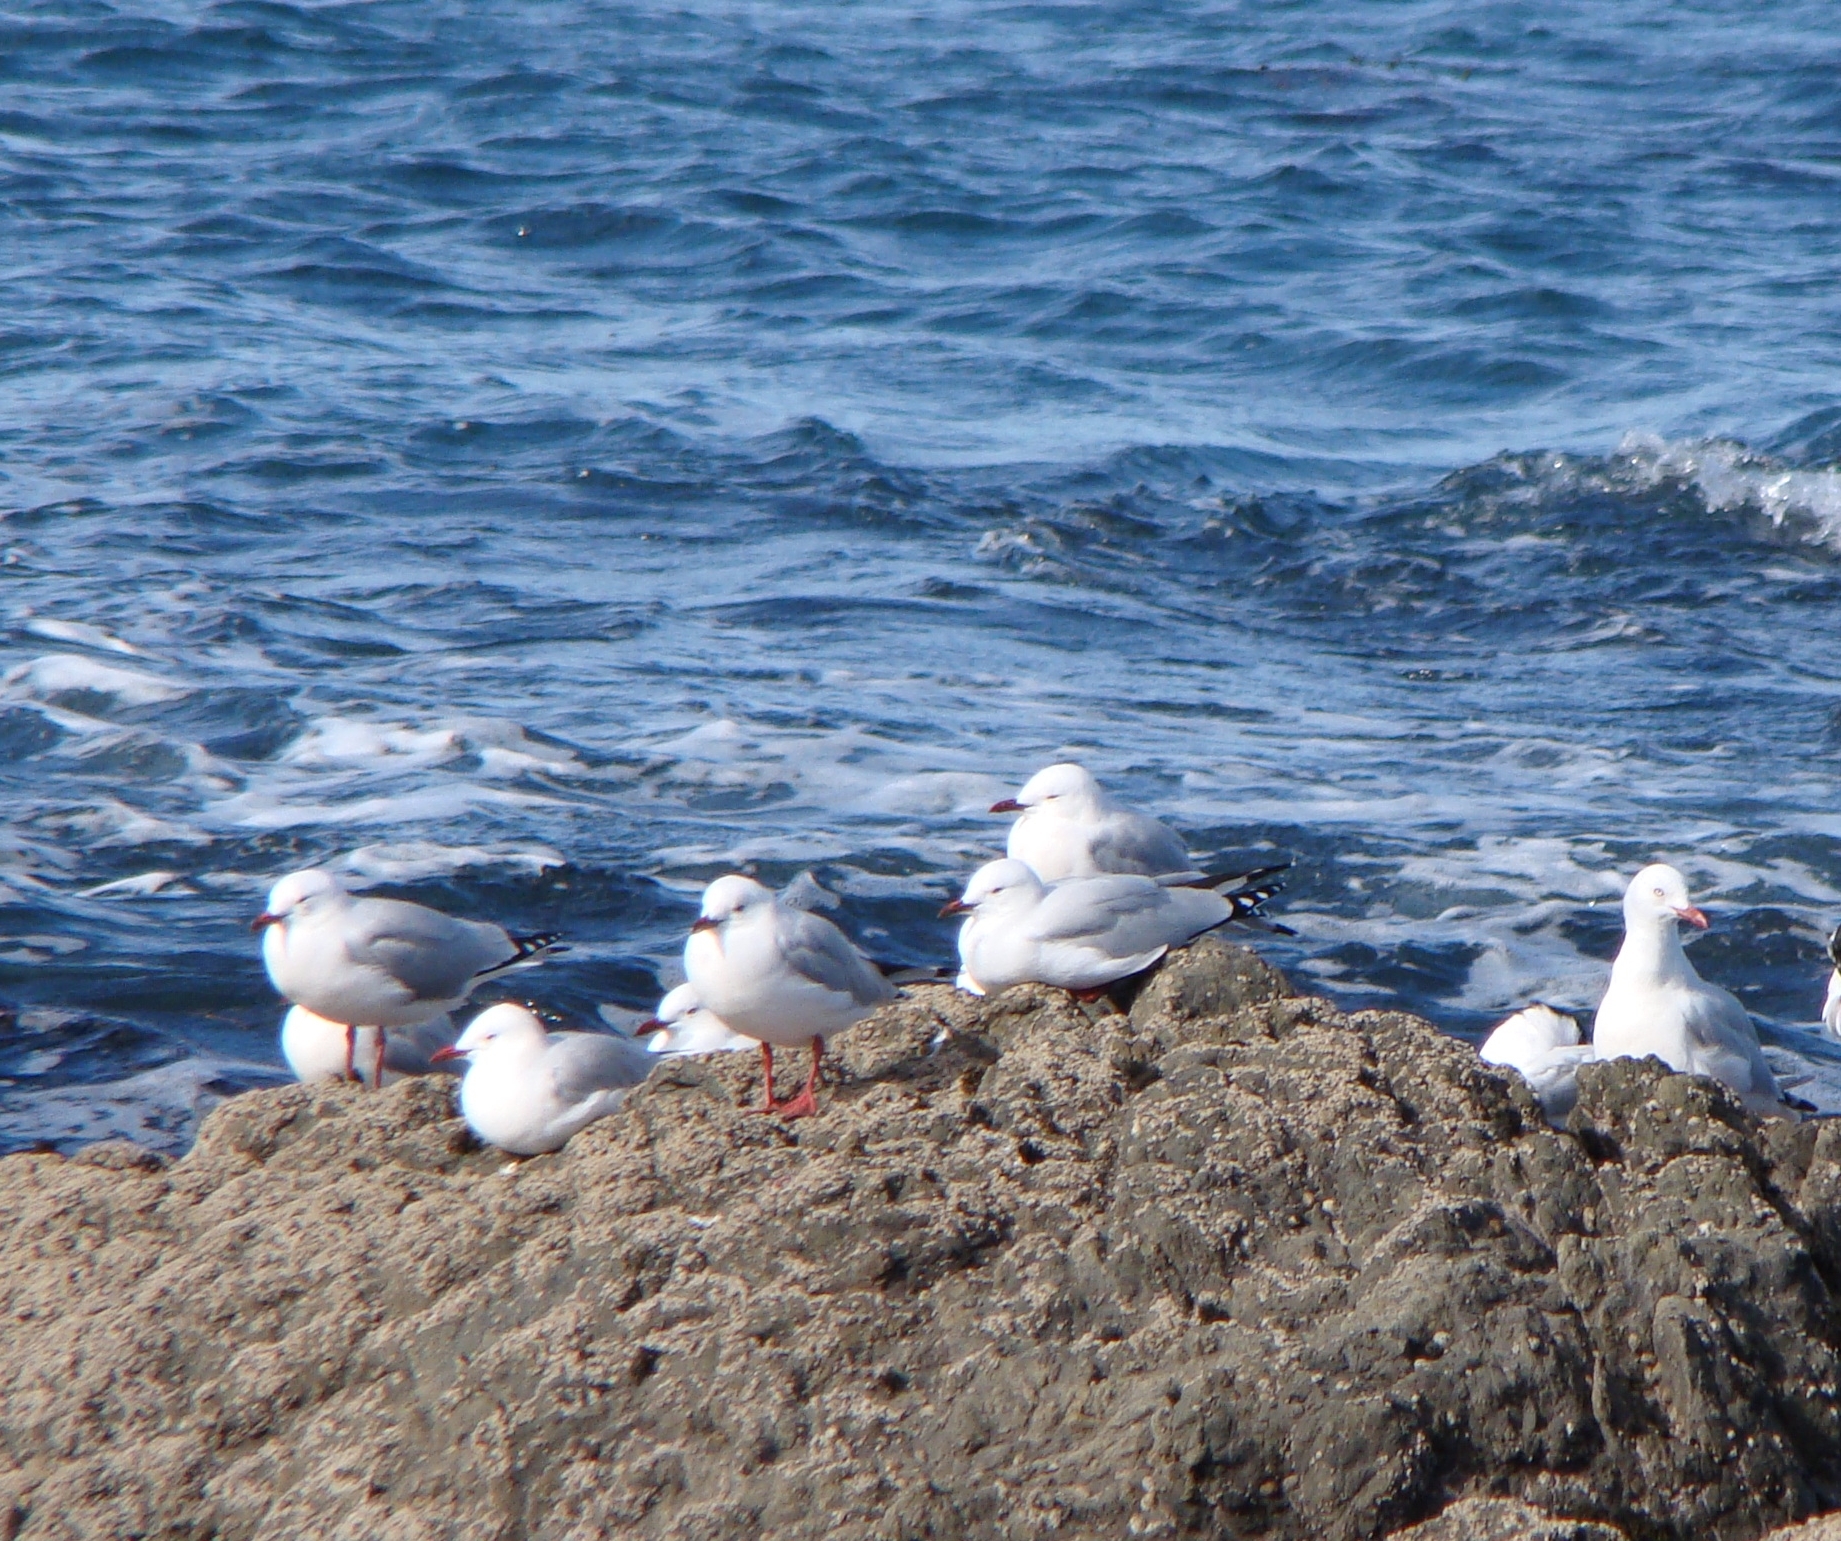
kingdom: Animalia
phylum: Chordata
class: Aves
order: Charadriiformes
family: Laridae
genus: Chroicocephalus
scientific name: Chroicocephalus novaehollandiae
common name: Silver gull
